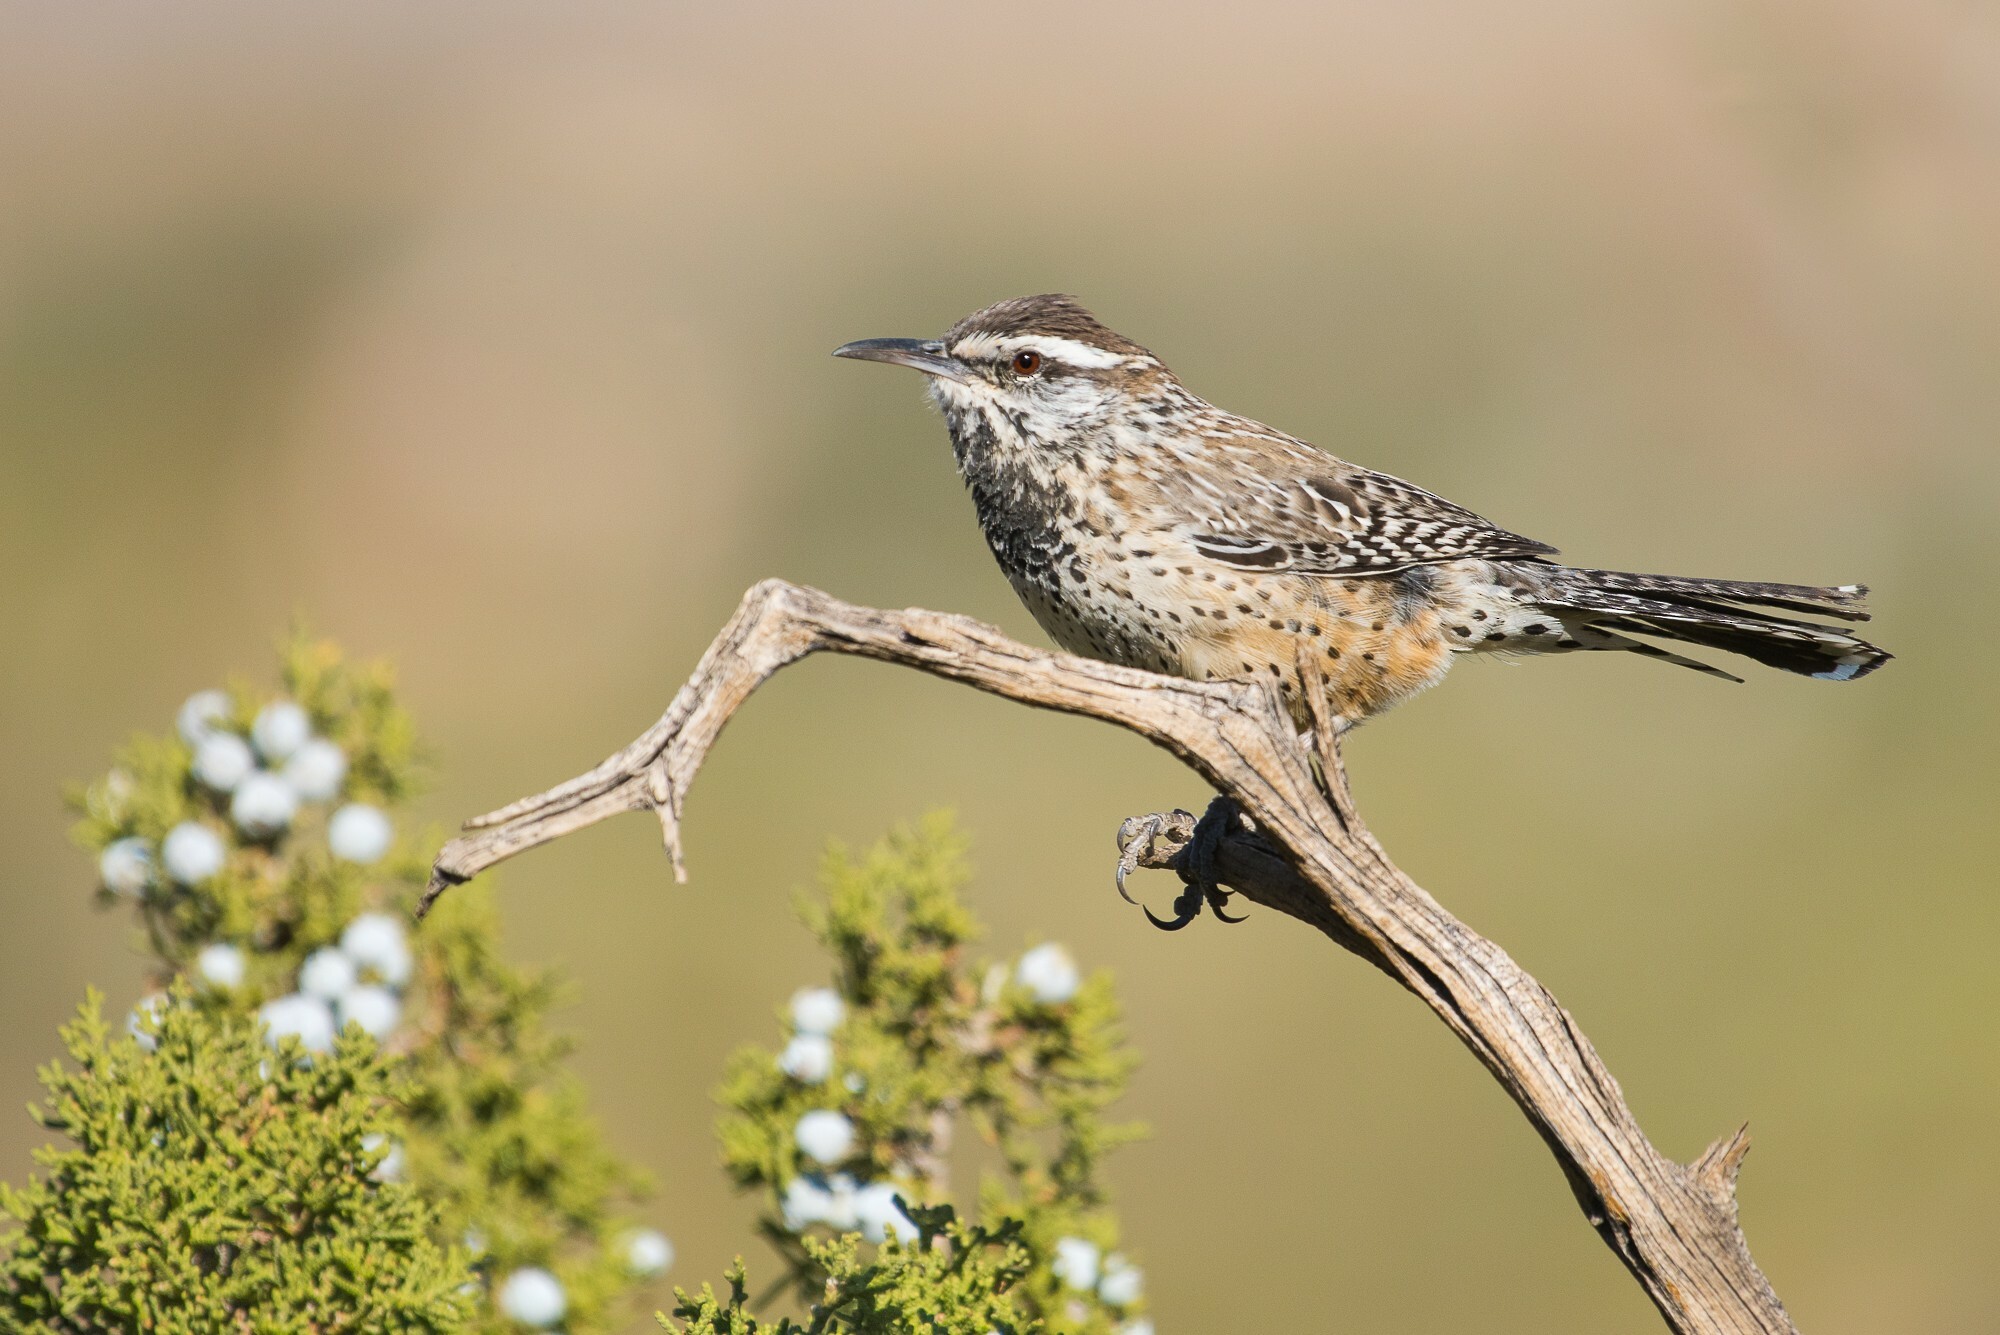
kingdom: Animalia
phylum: Chordata
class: Aves
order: Passeriformes
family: Troglodytidae
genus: Campylorhynchus
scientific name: Campylorhynchus brunneicapillus
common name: Cactus wren
